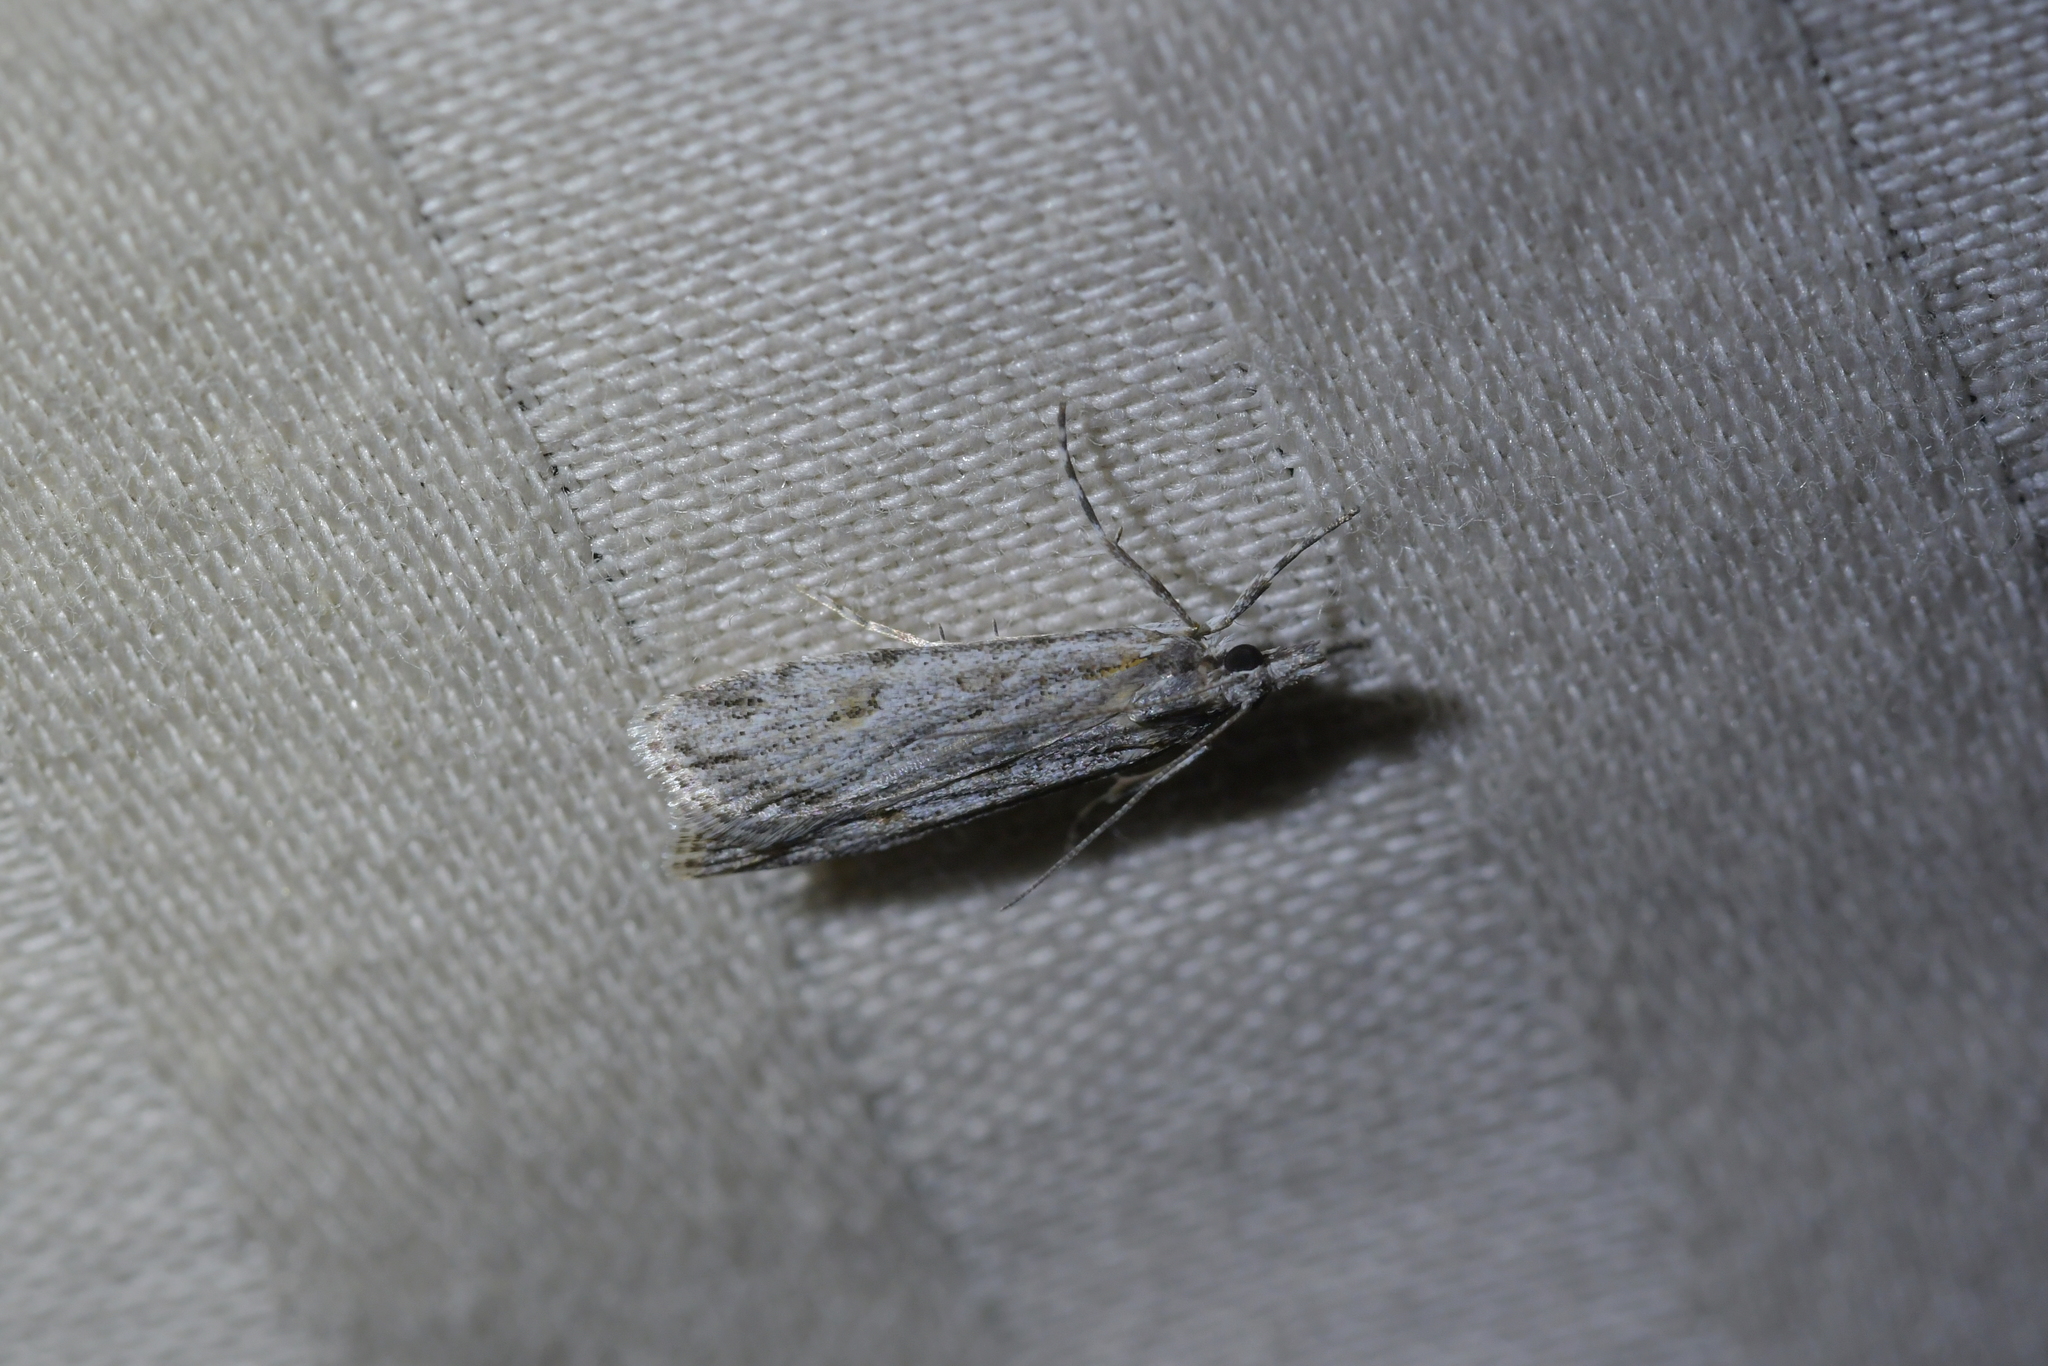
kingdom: Animalia
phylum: Arthropoda
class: Insecta
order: Lepidoptera
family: Crambidae
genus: Scoparia
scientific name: Scoparia chalicodes
